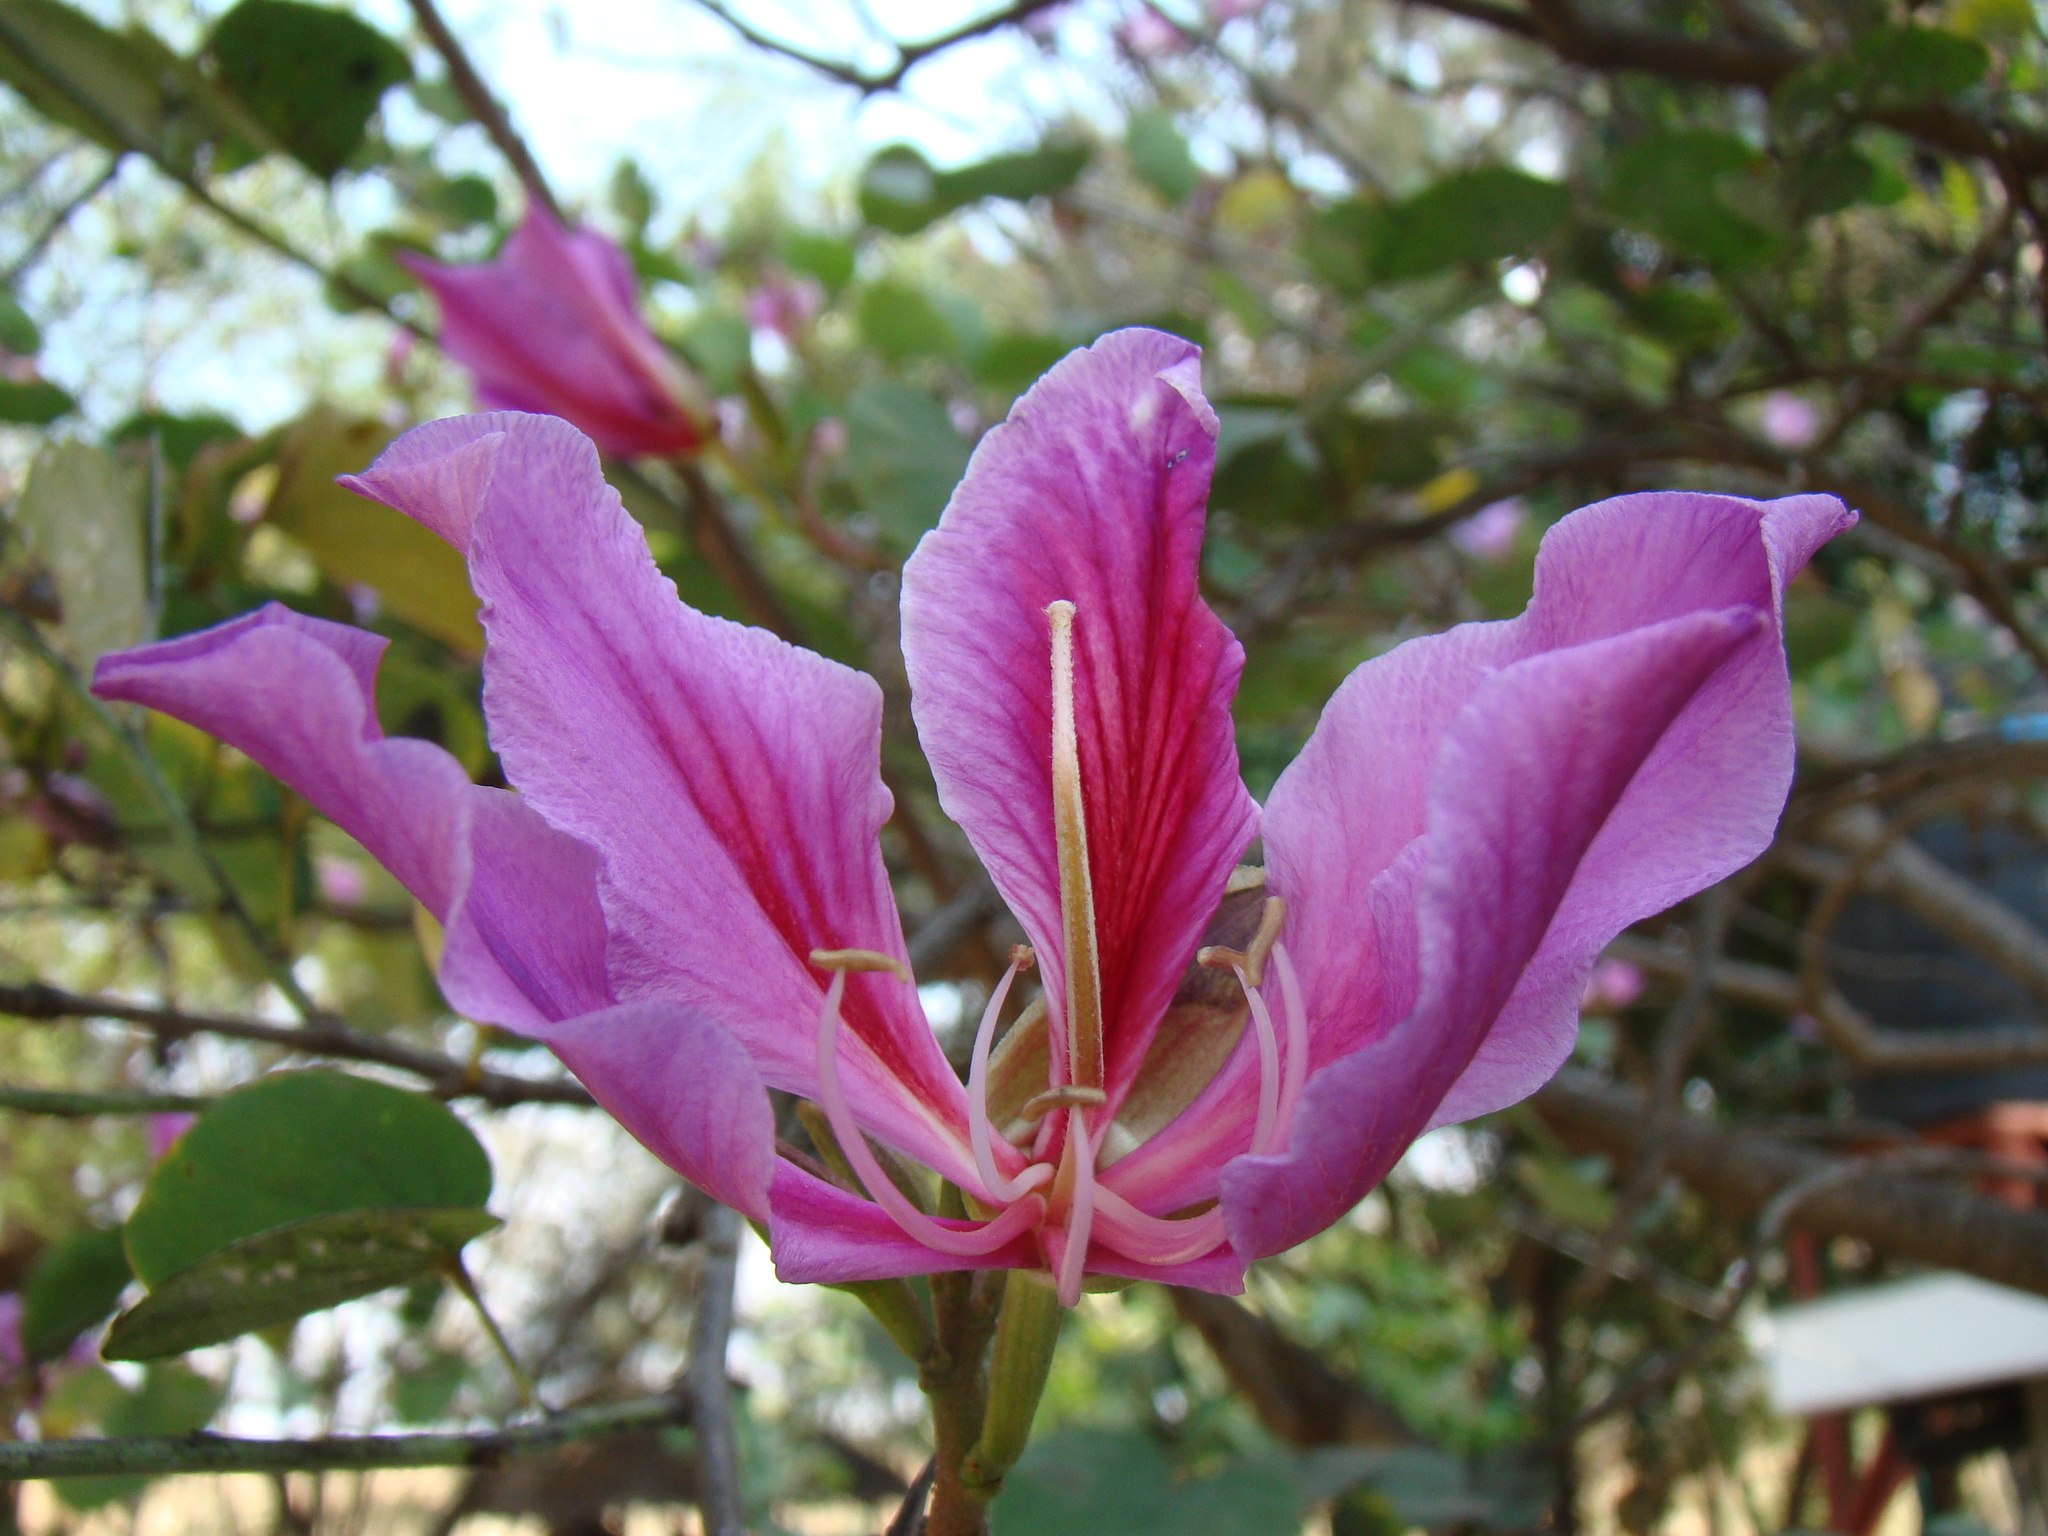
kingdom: Plantae
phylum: Tracheophyta
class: Magnoliopsida
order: Fabales
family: Fabaceae
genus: Bauhinia
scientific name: Bauhinia variegata
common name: Mountain ebony
